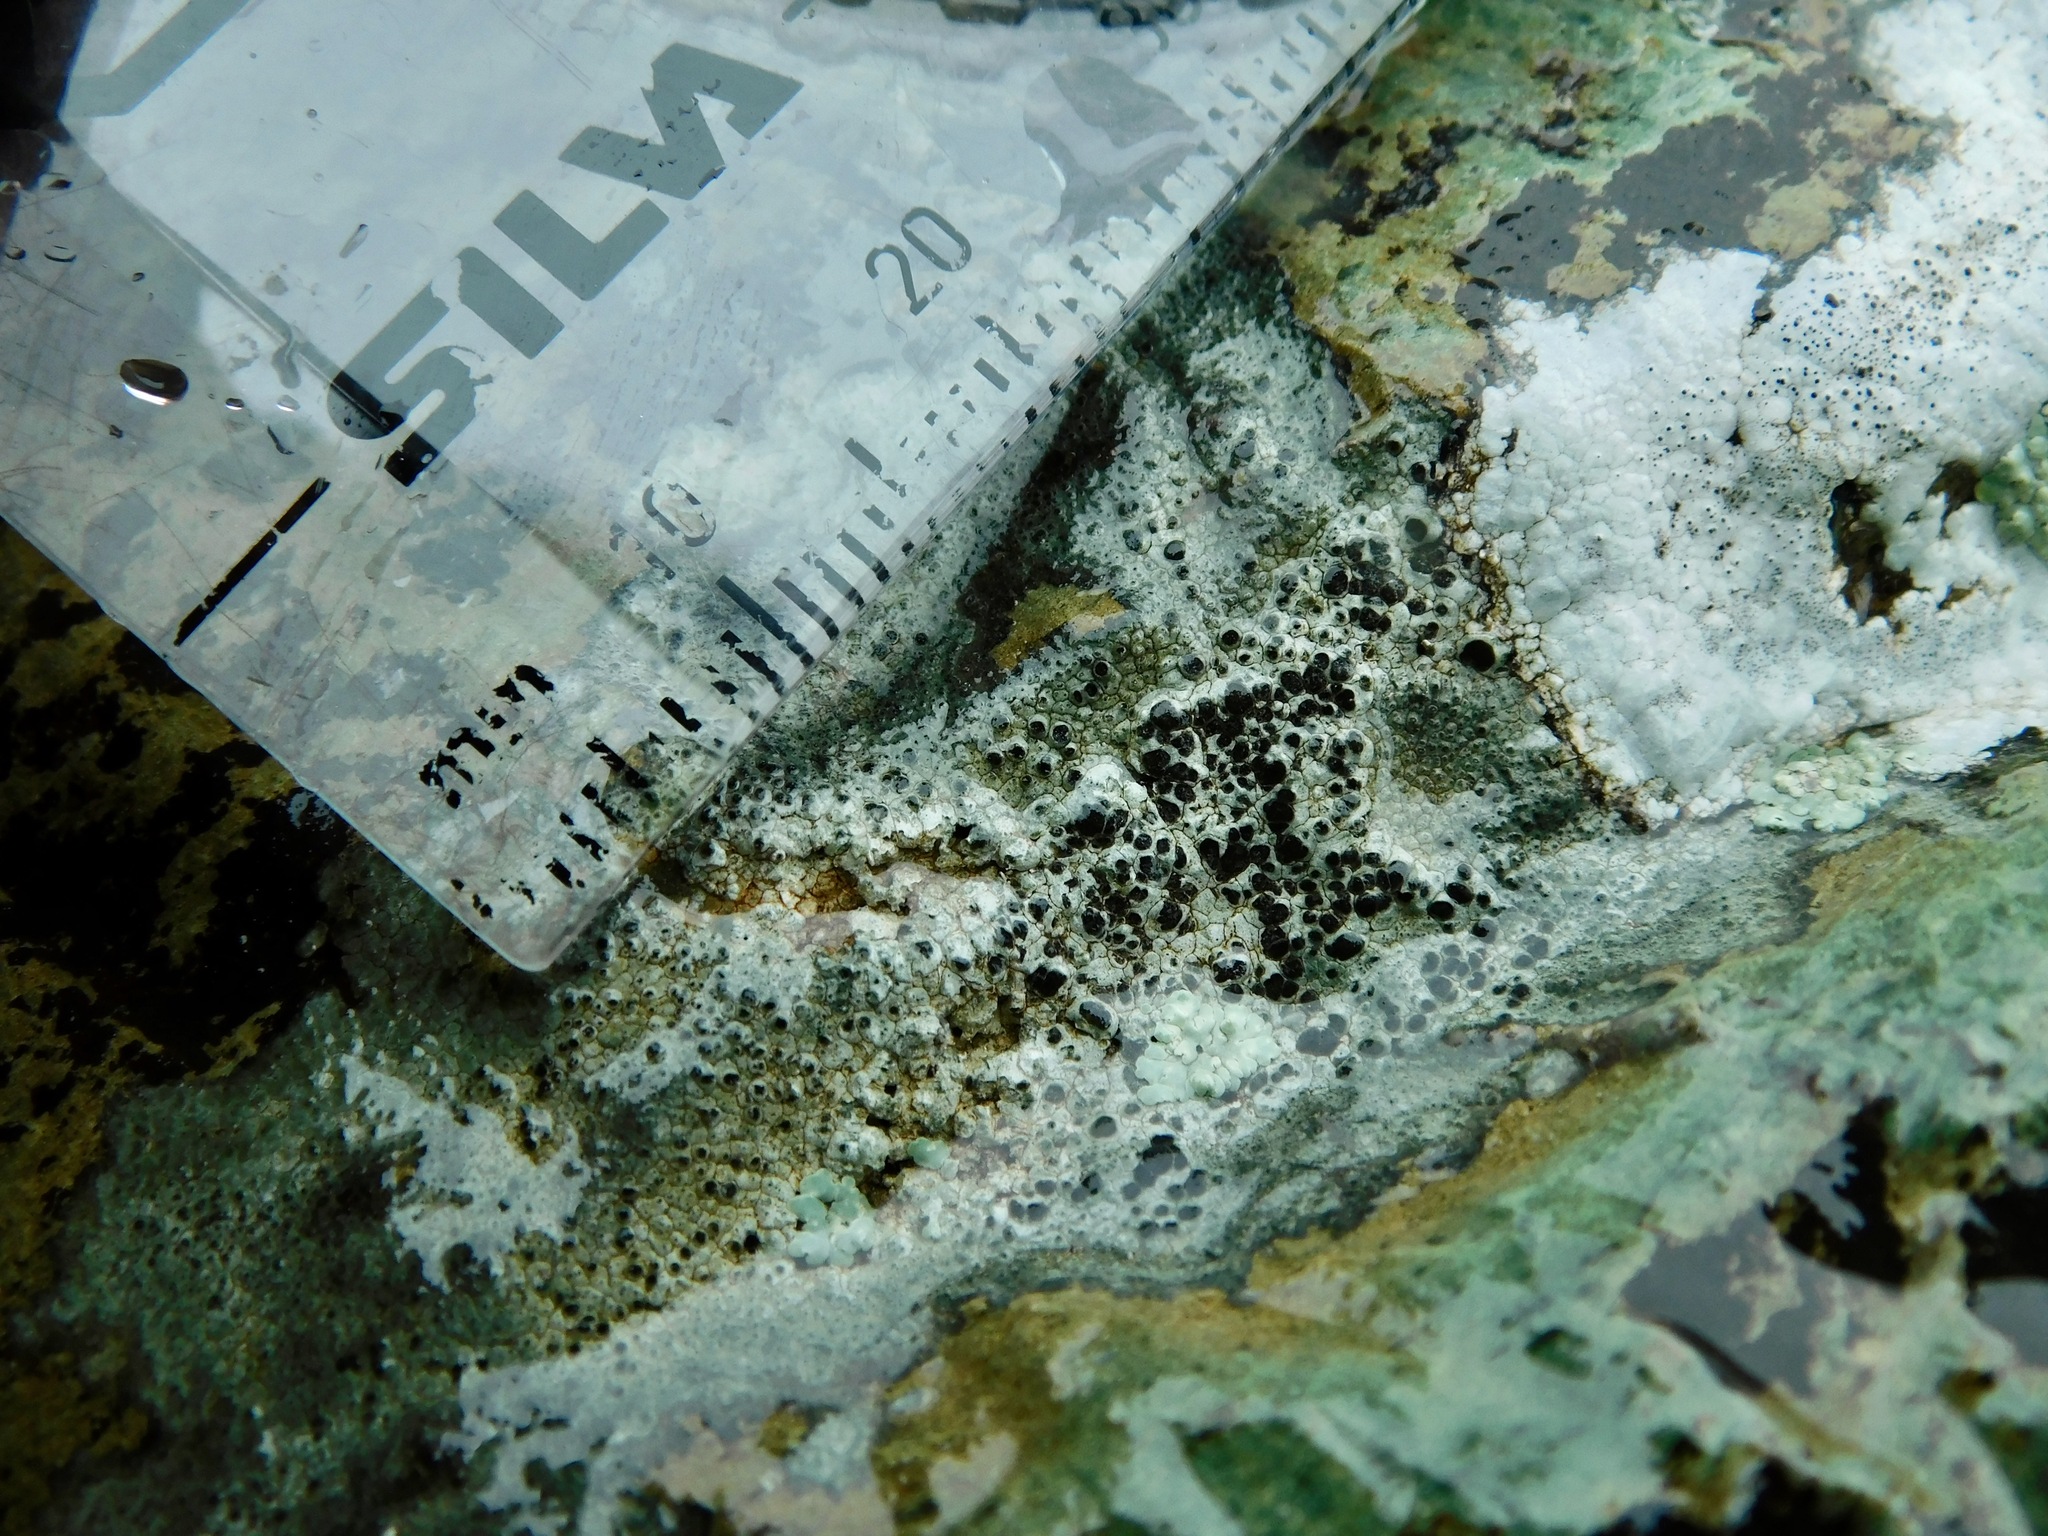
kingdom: Fungi
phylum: Ascomycota
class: Lecanoromycetes
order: Caliciales
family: Physciaceae
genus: Mischoblastia
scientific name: Mischoblastia oxydata
